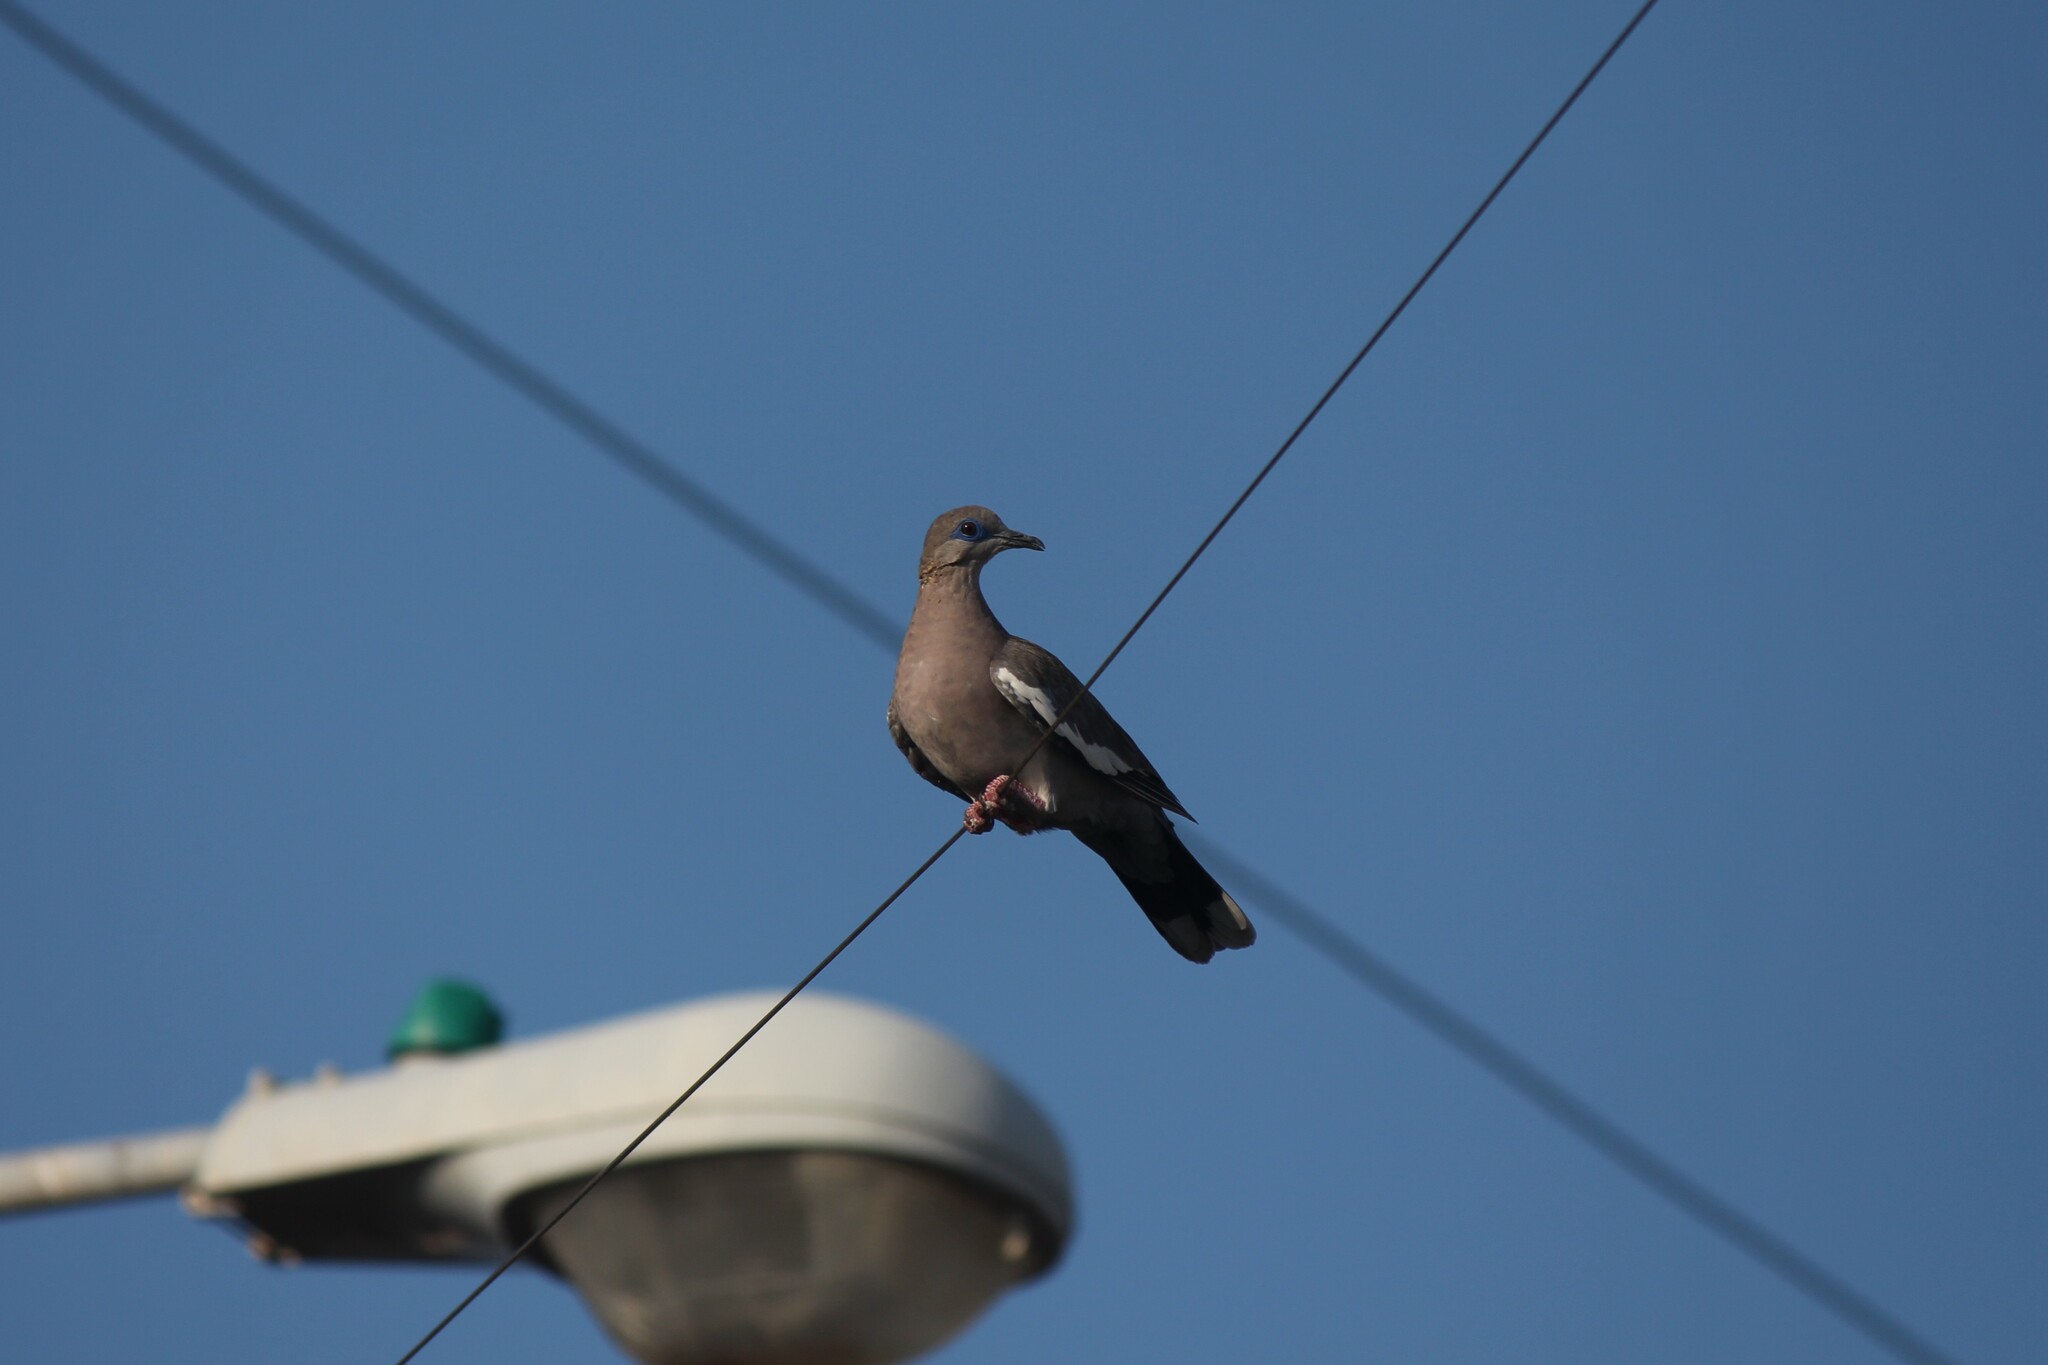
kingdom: Animalia
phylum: Chordata
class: Aves
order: Columbiformes
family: Columbidae
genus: Zenaida
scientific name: Zenaida meloda
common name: West peruvian dove
